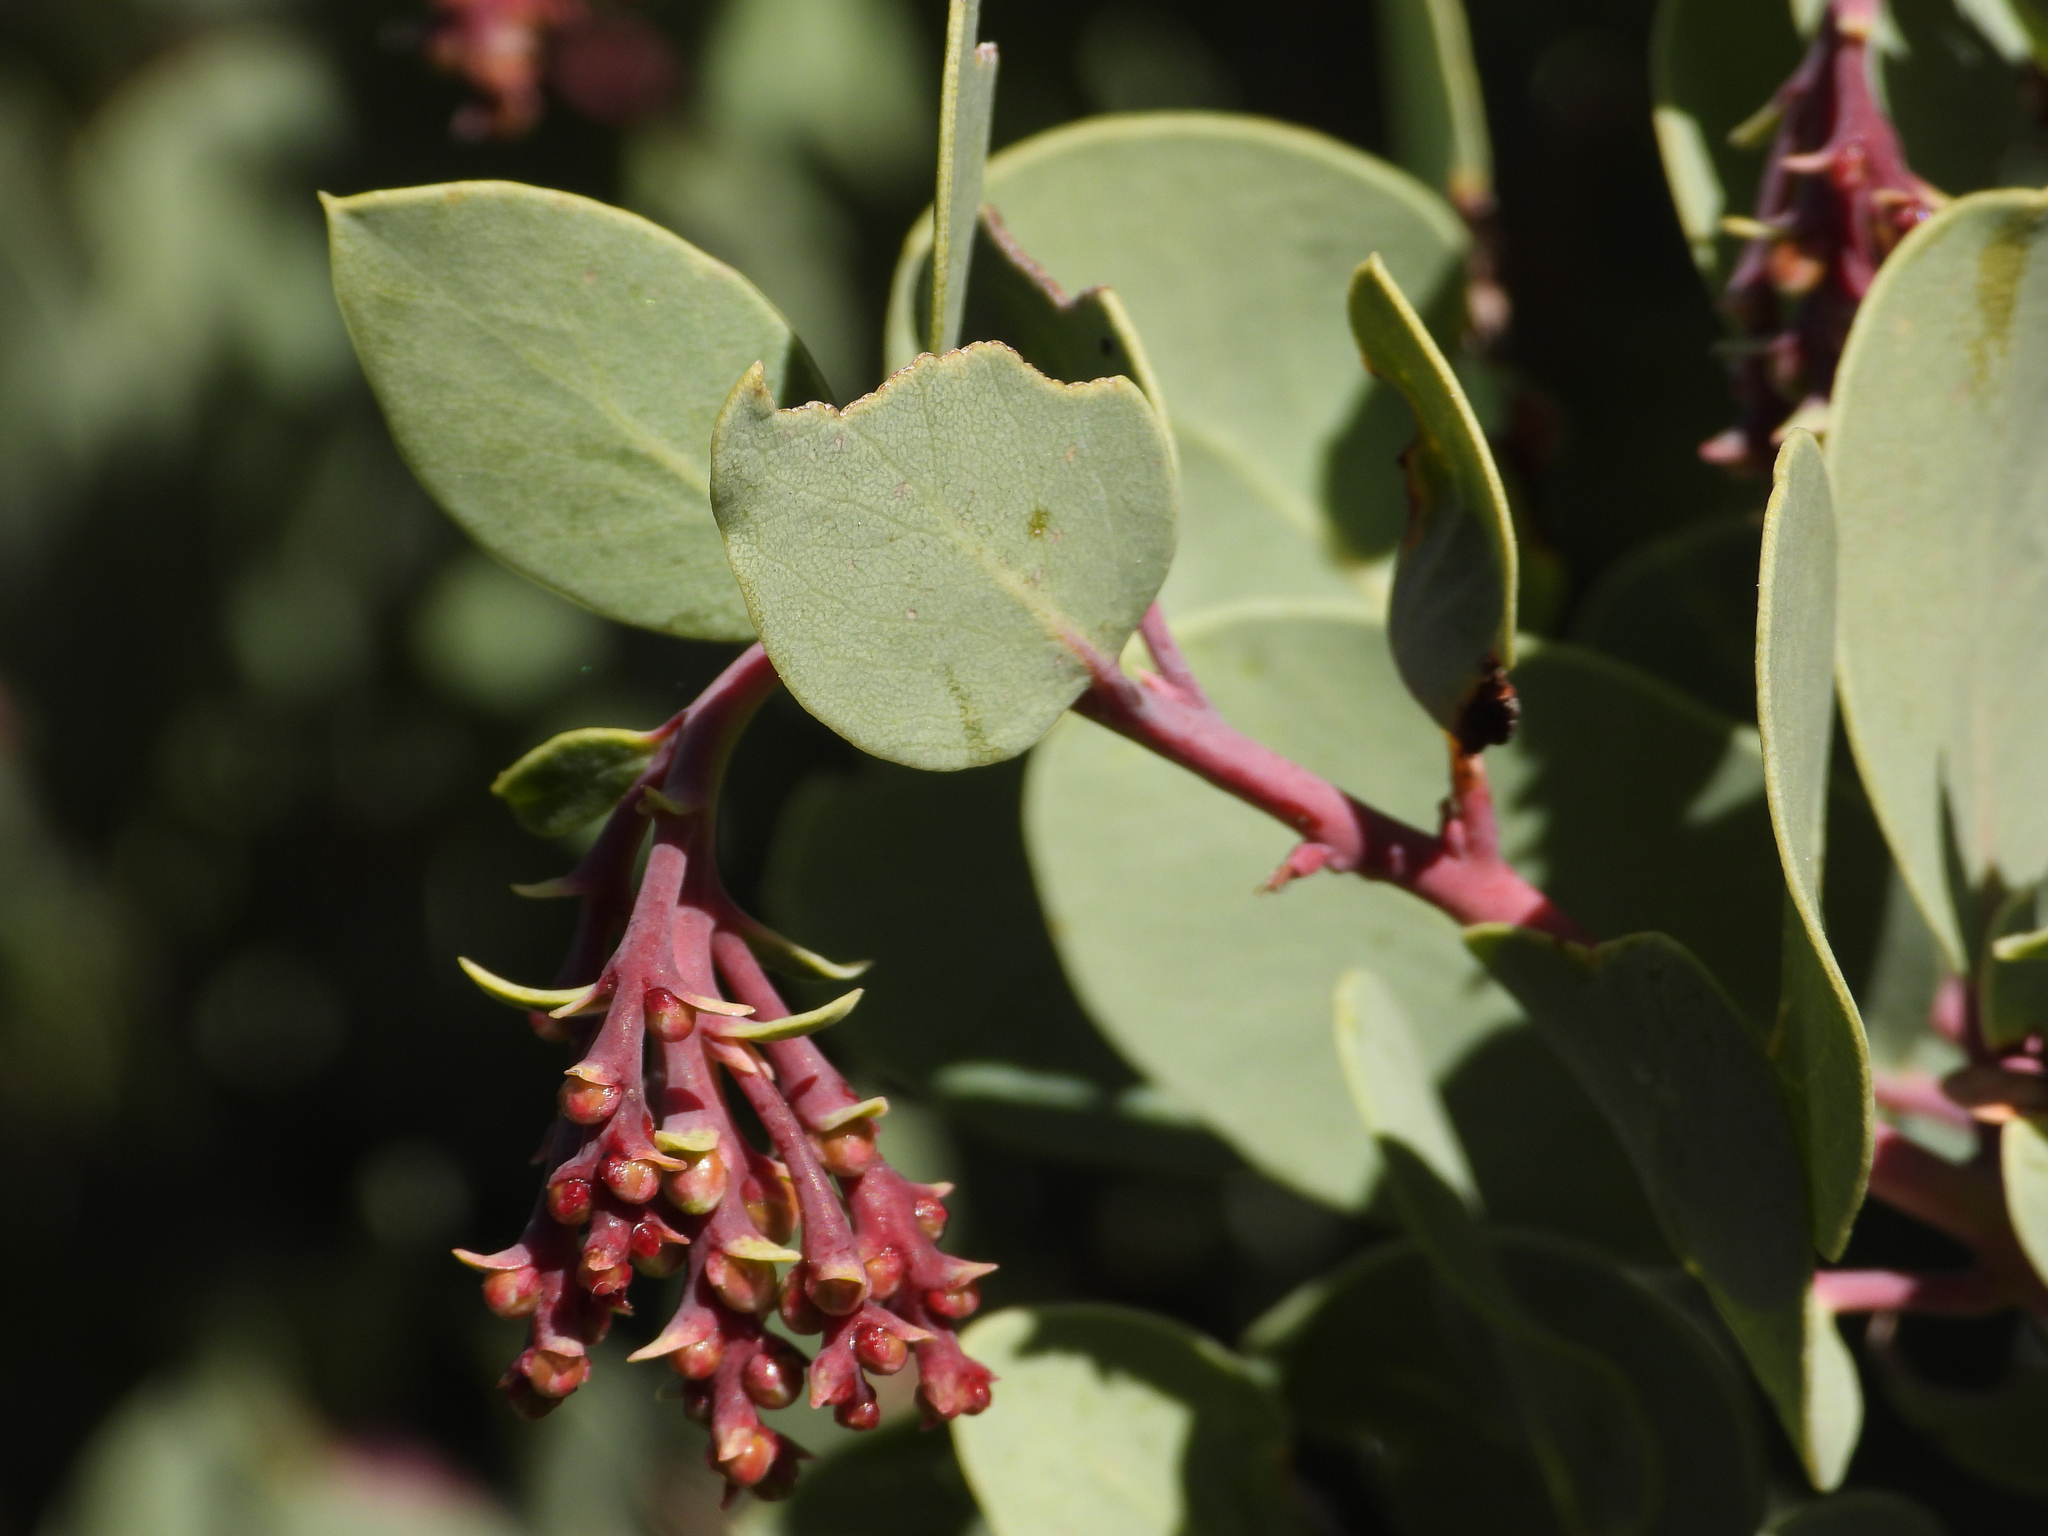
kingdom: Plantae
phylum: Tracheophyta
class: Magnoliopsida
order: Ericales
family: Ericaceae
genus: Arctostaphylos
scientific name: Arctostaphylos glauca
